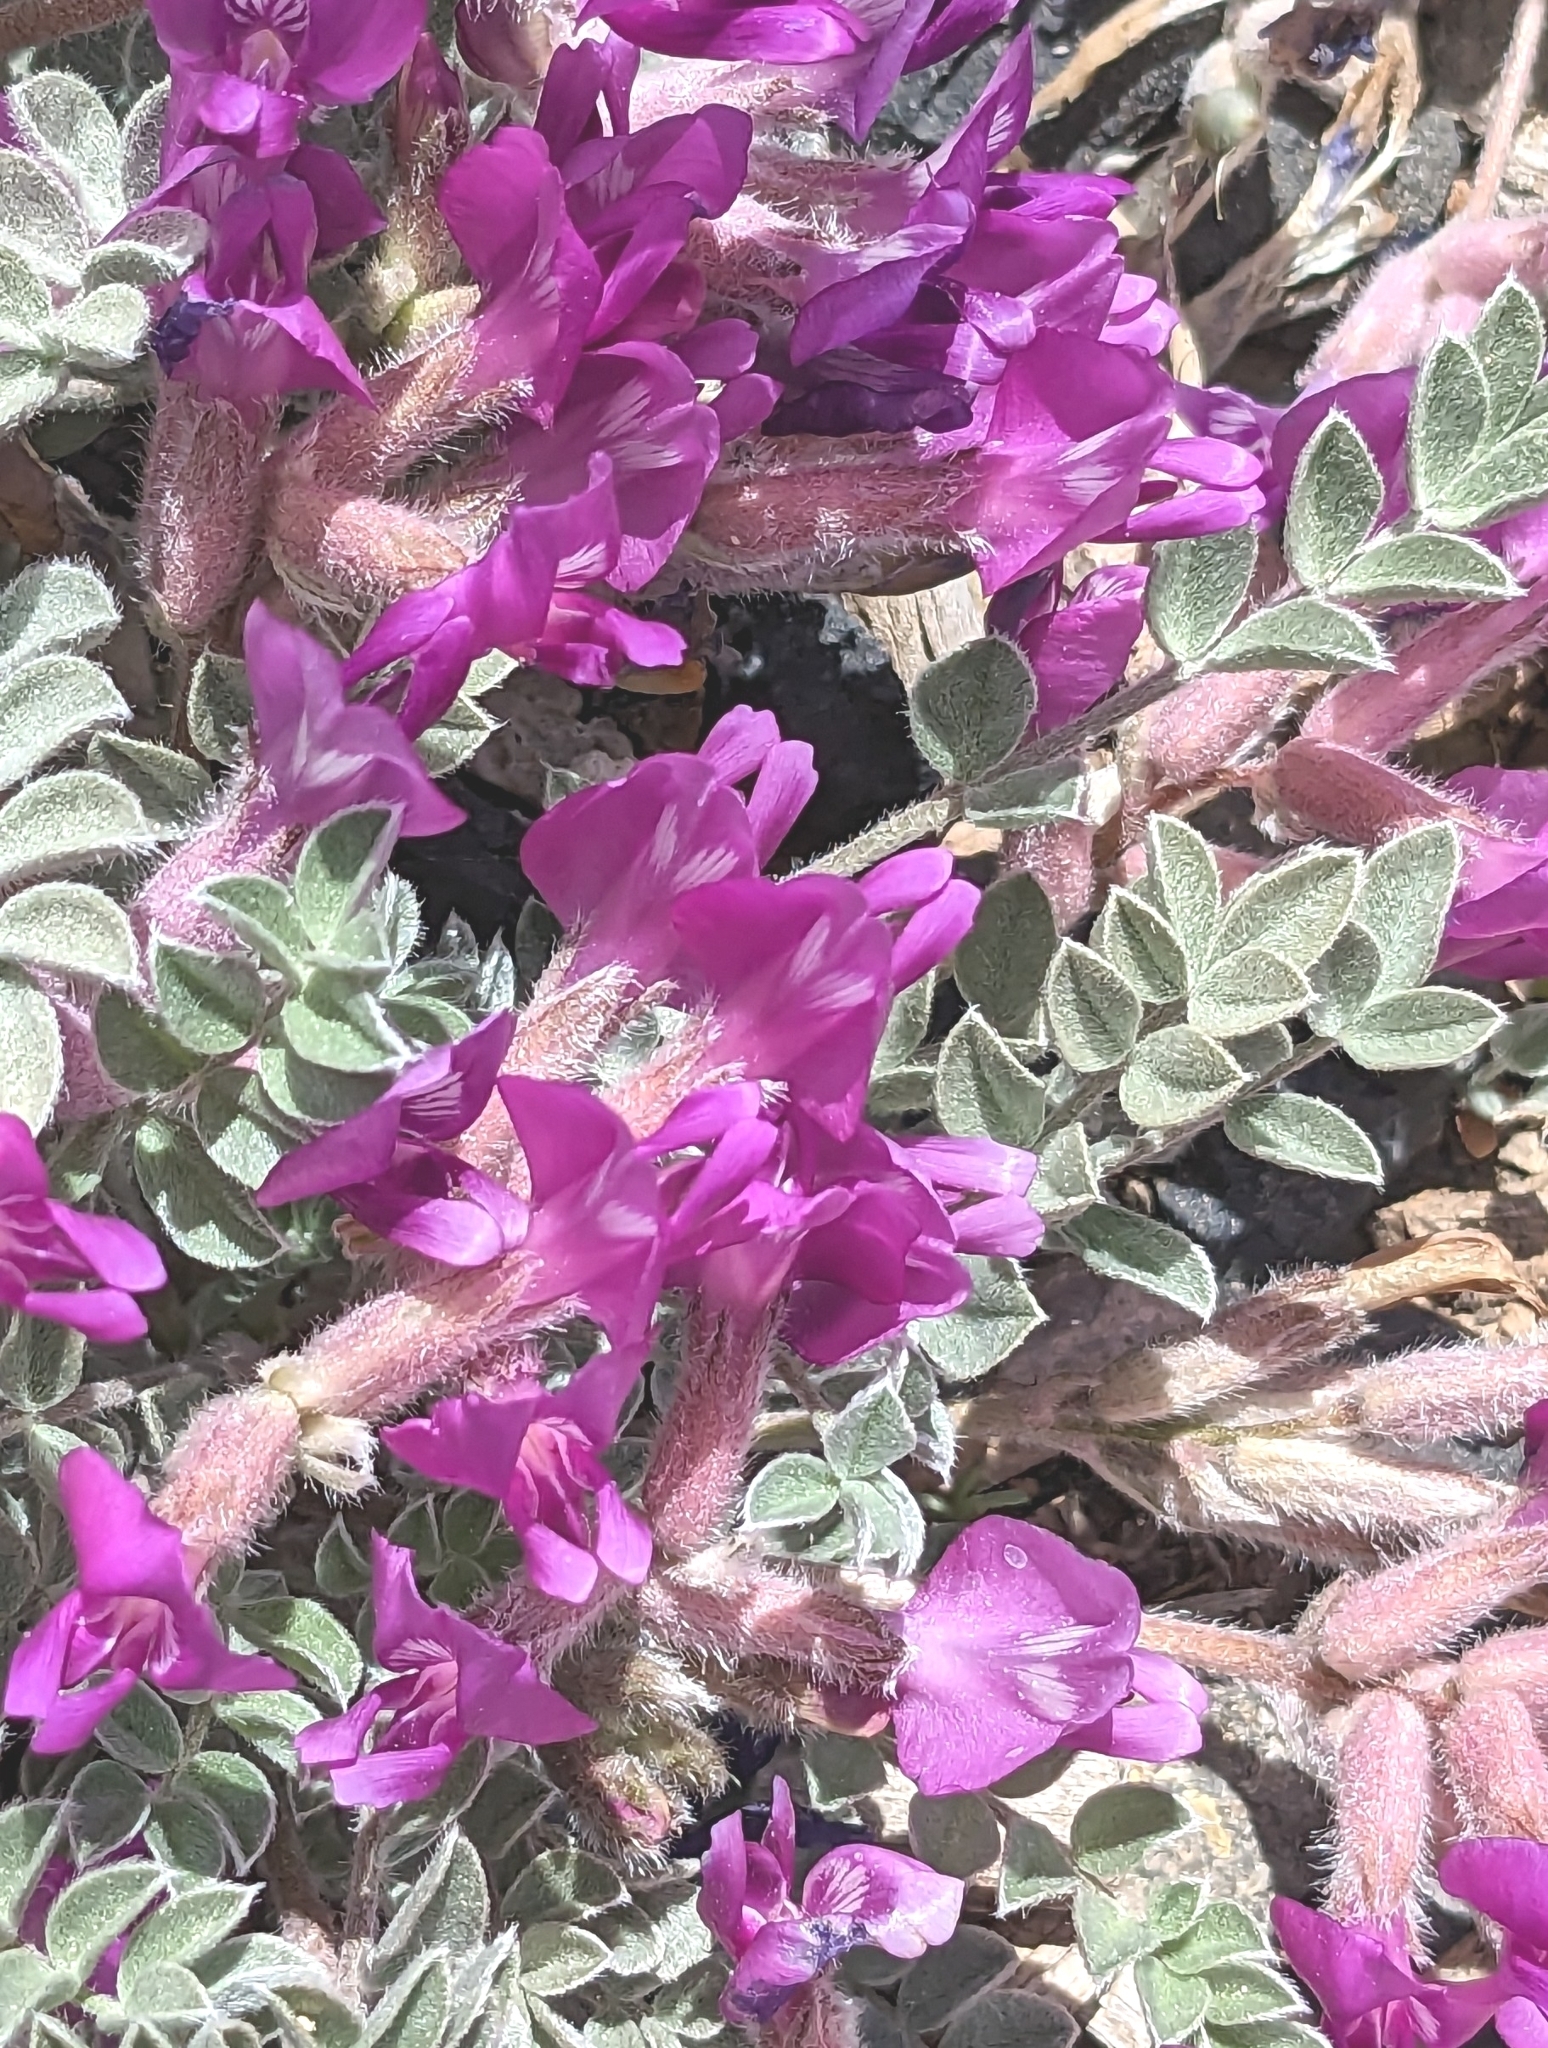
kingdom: Plantae
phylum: Tracheophyta
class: Magnoliopsida
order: Fabales
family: Fabaceae
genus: Astragalus
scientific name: Astragalus purshii
